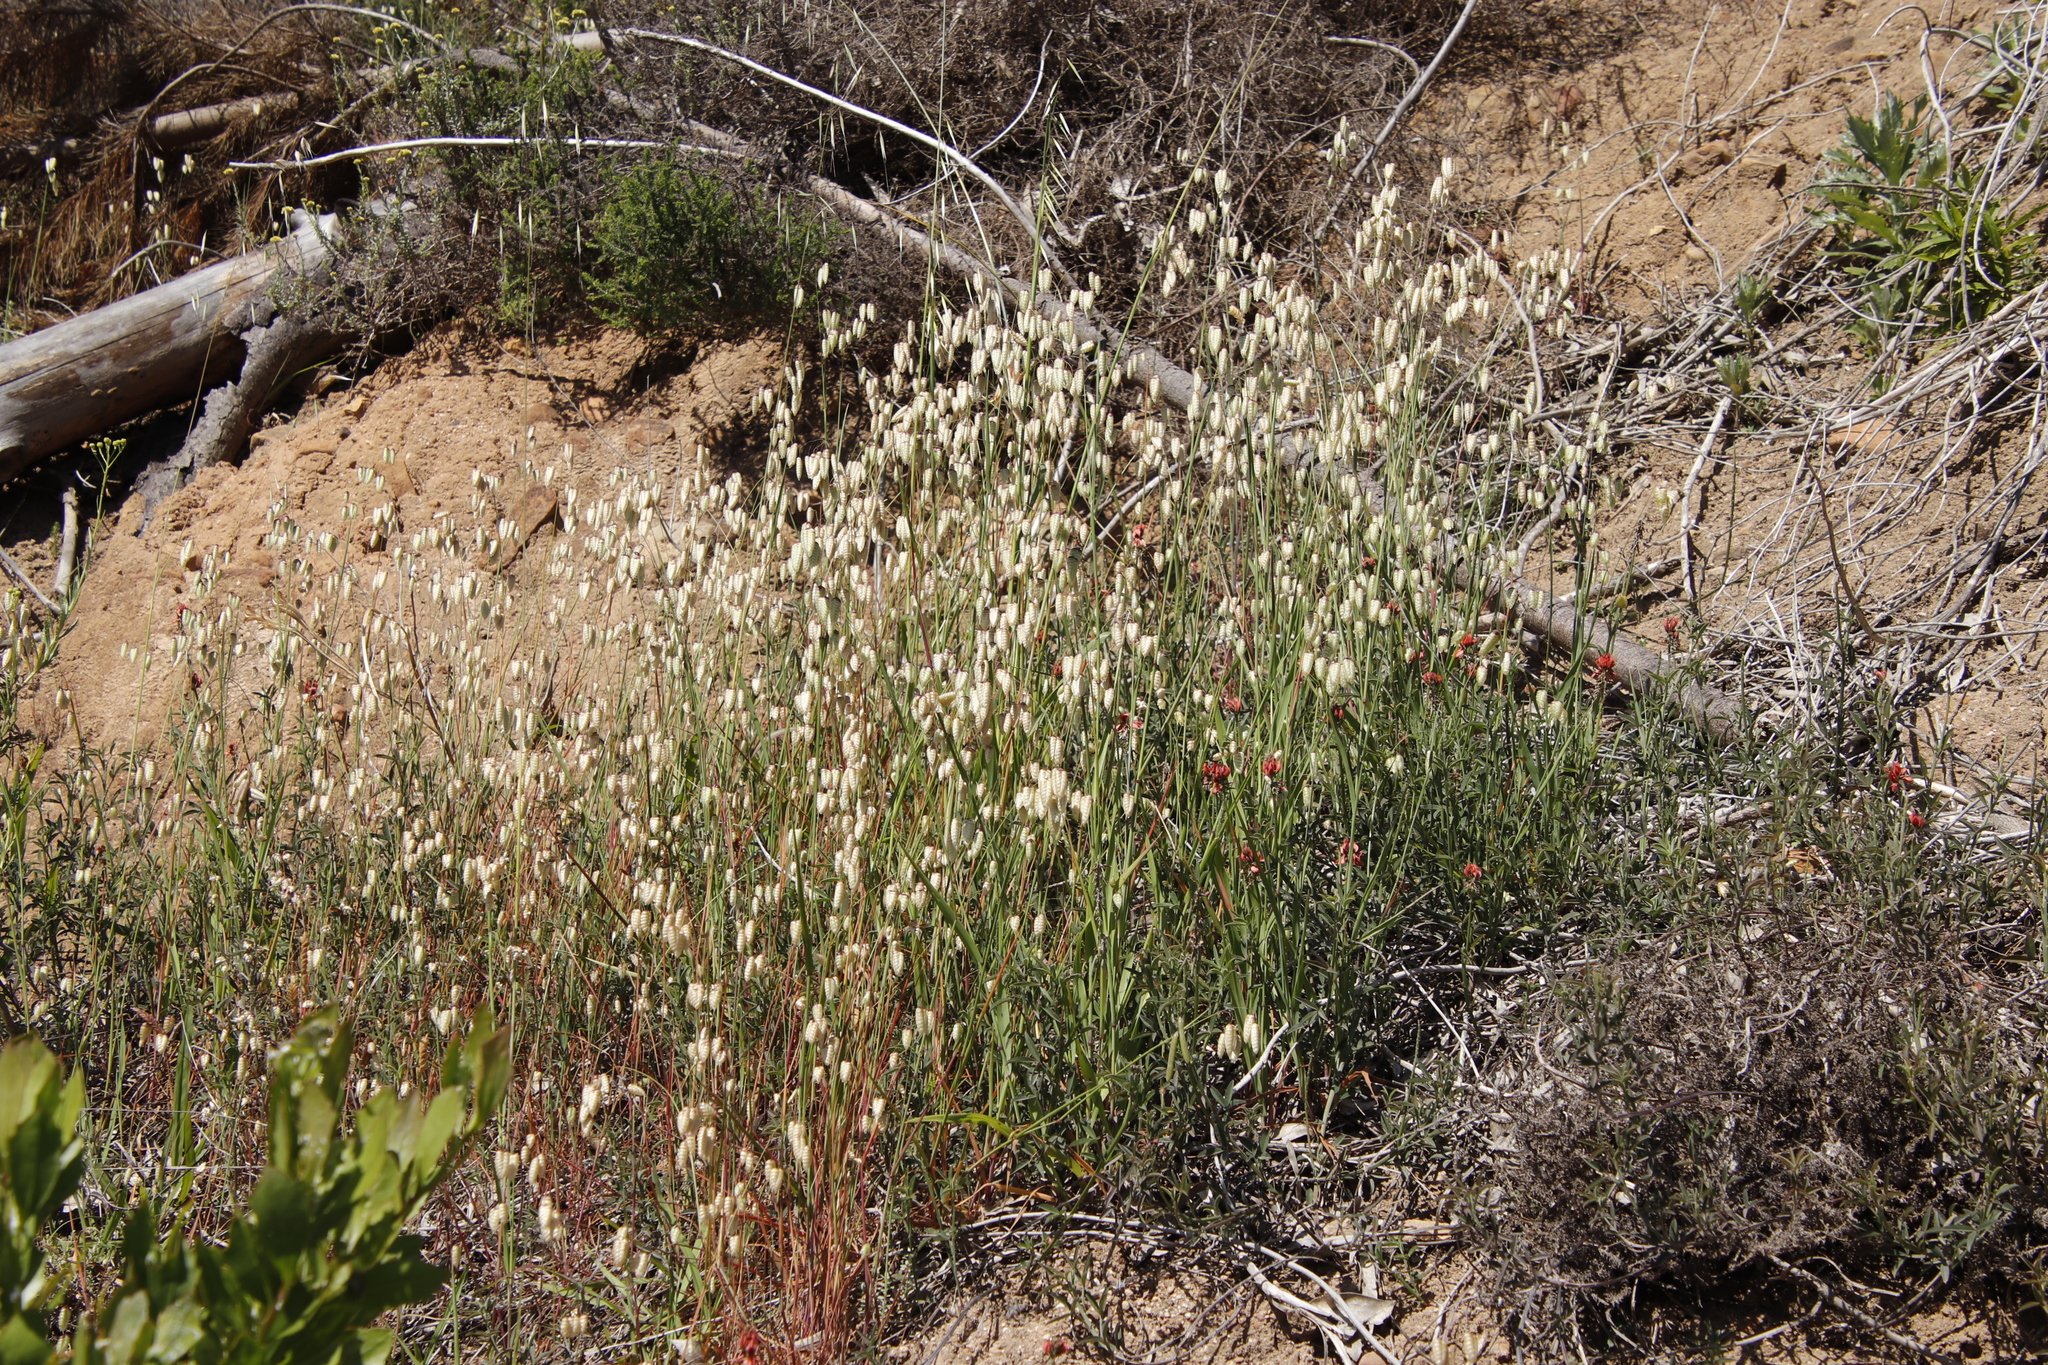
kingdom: Plantae
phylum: Tracheophyta
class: Liliopsida
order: Poales
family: Poaceae
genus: Briza
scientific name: Briza maxima
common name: Big quakinggrass
